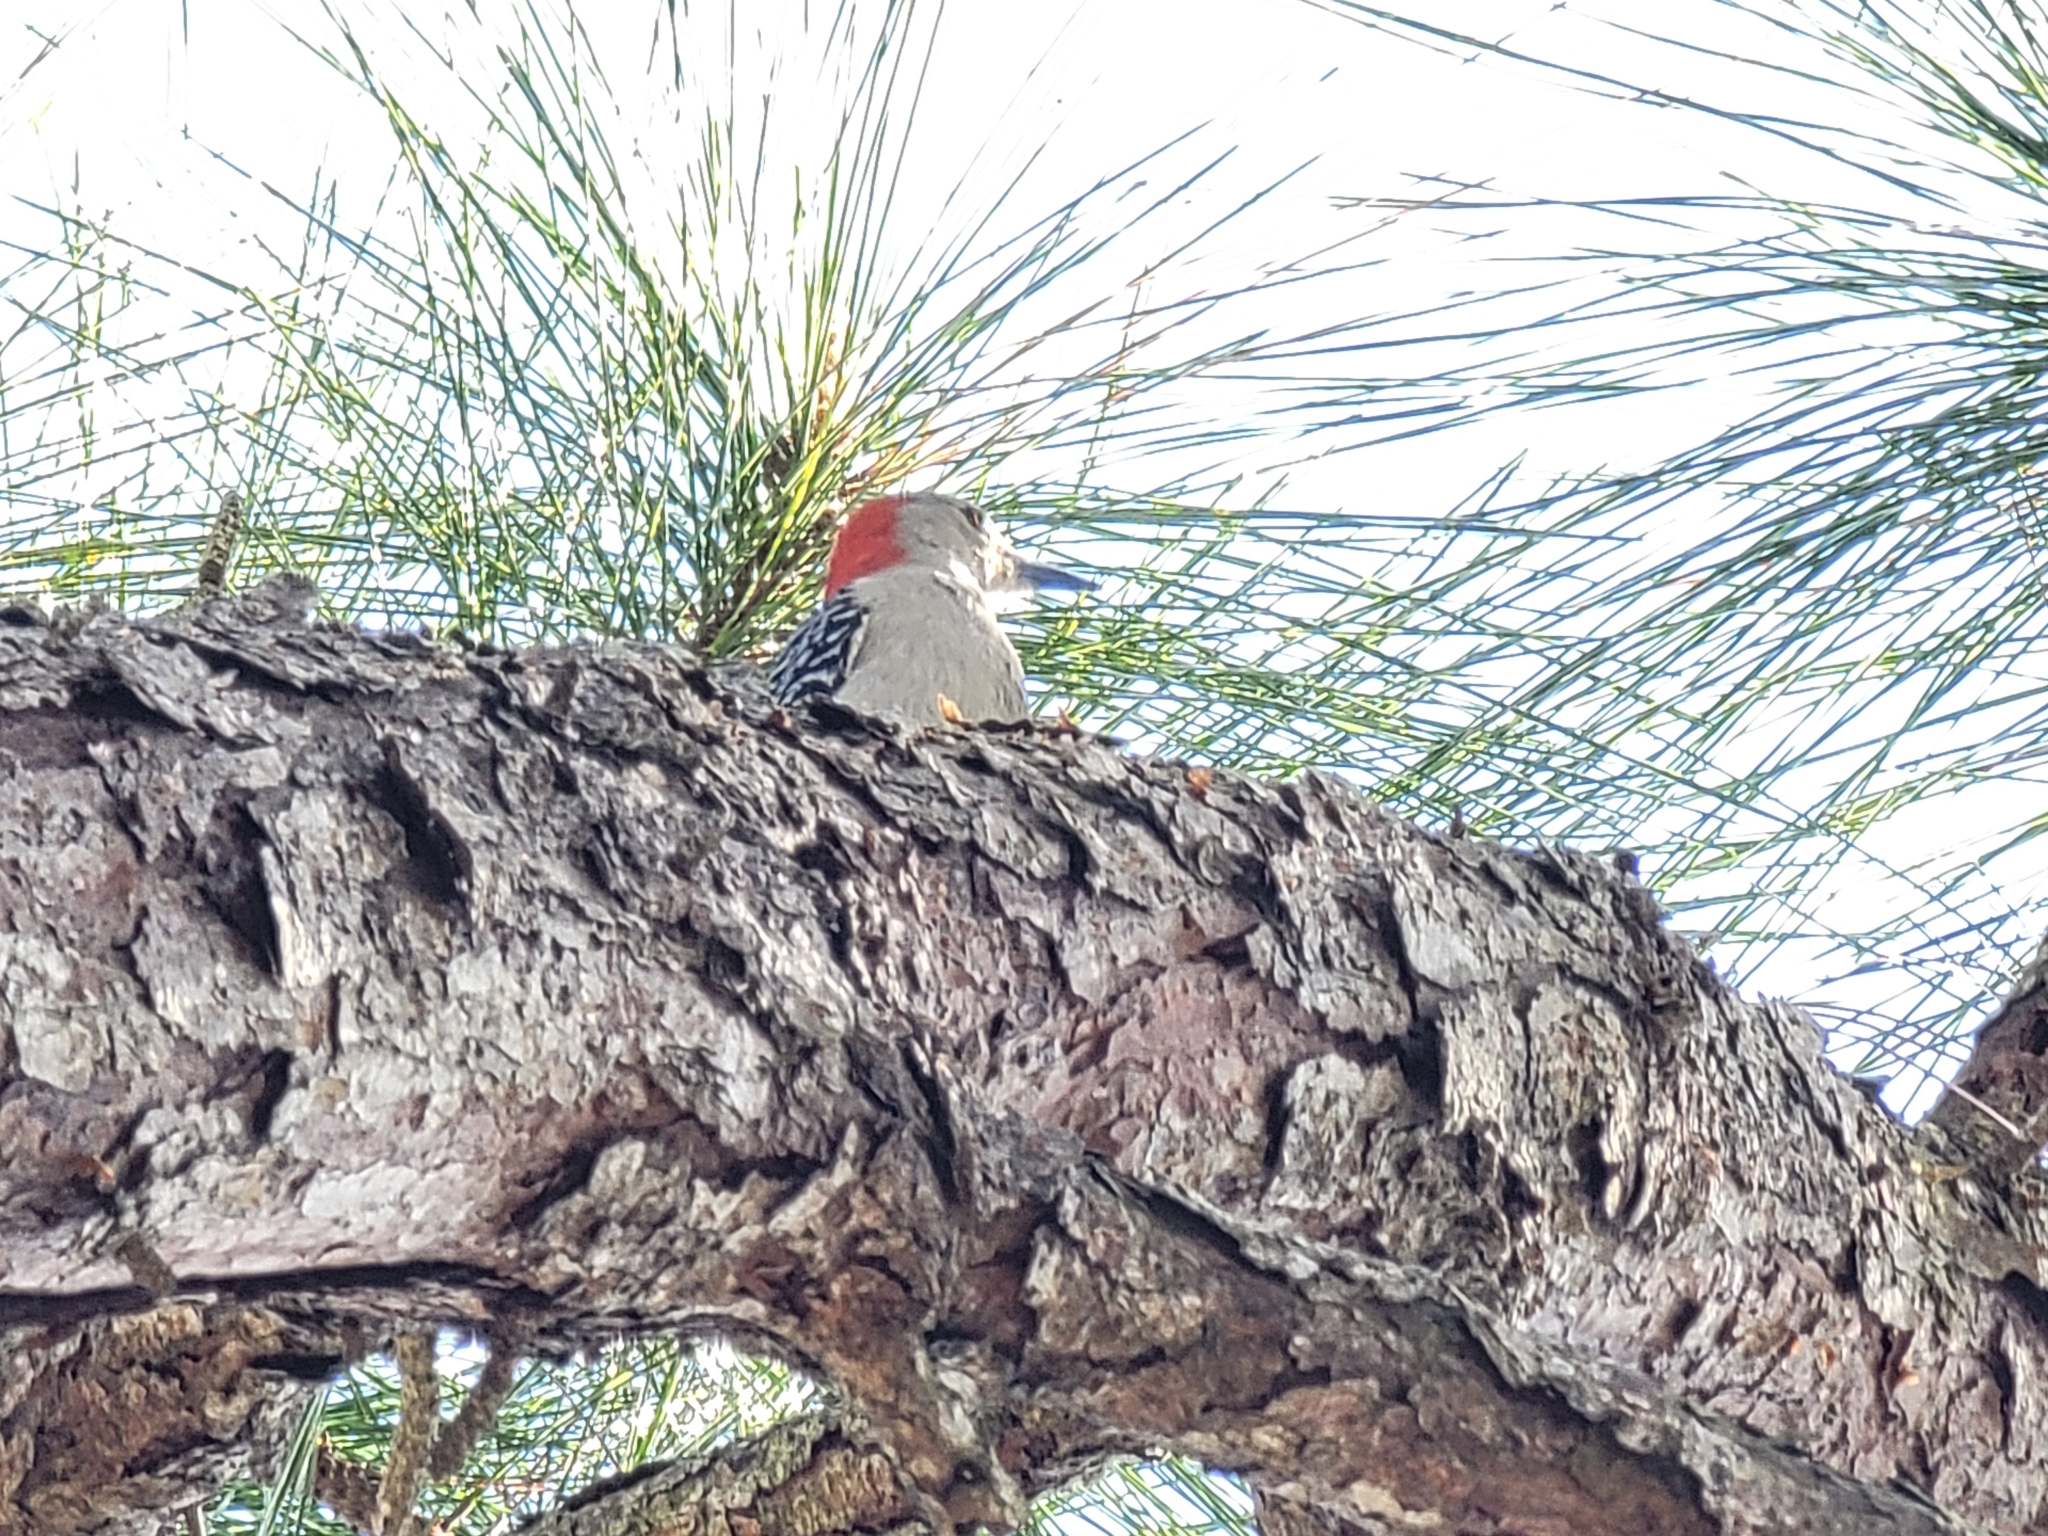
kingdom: Animalia
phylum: Chordata
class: Aves
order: Piciformes
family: Picidae
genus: Melanerpes
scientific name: Melanerpes carolinus
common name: Red-bellied woodpecker
